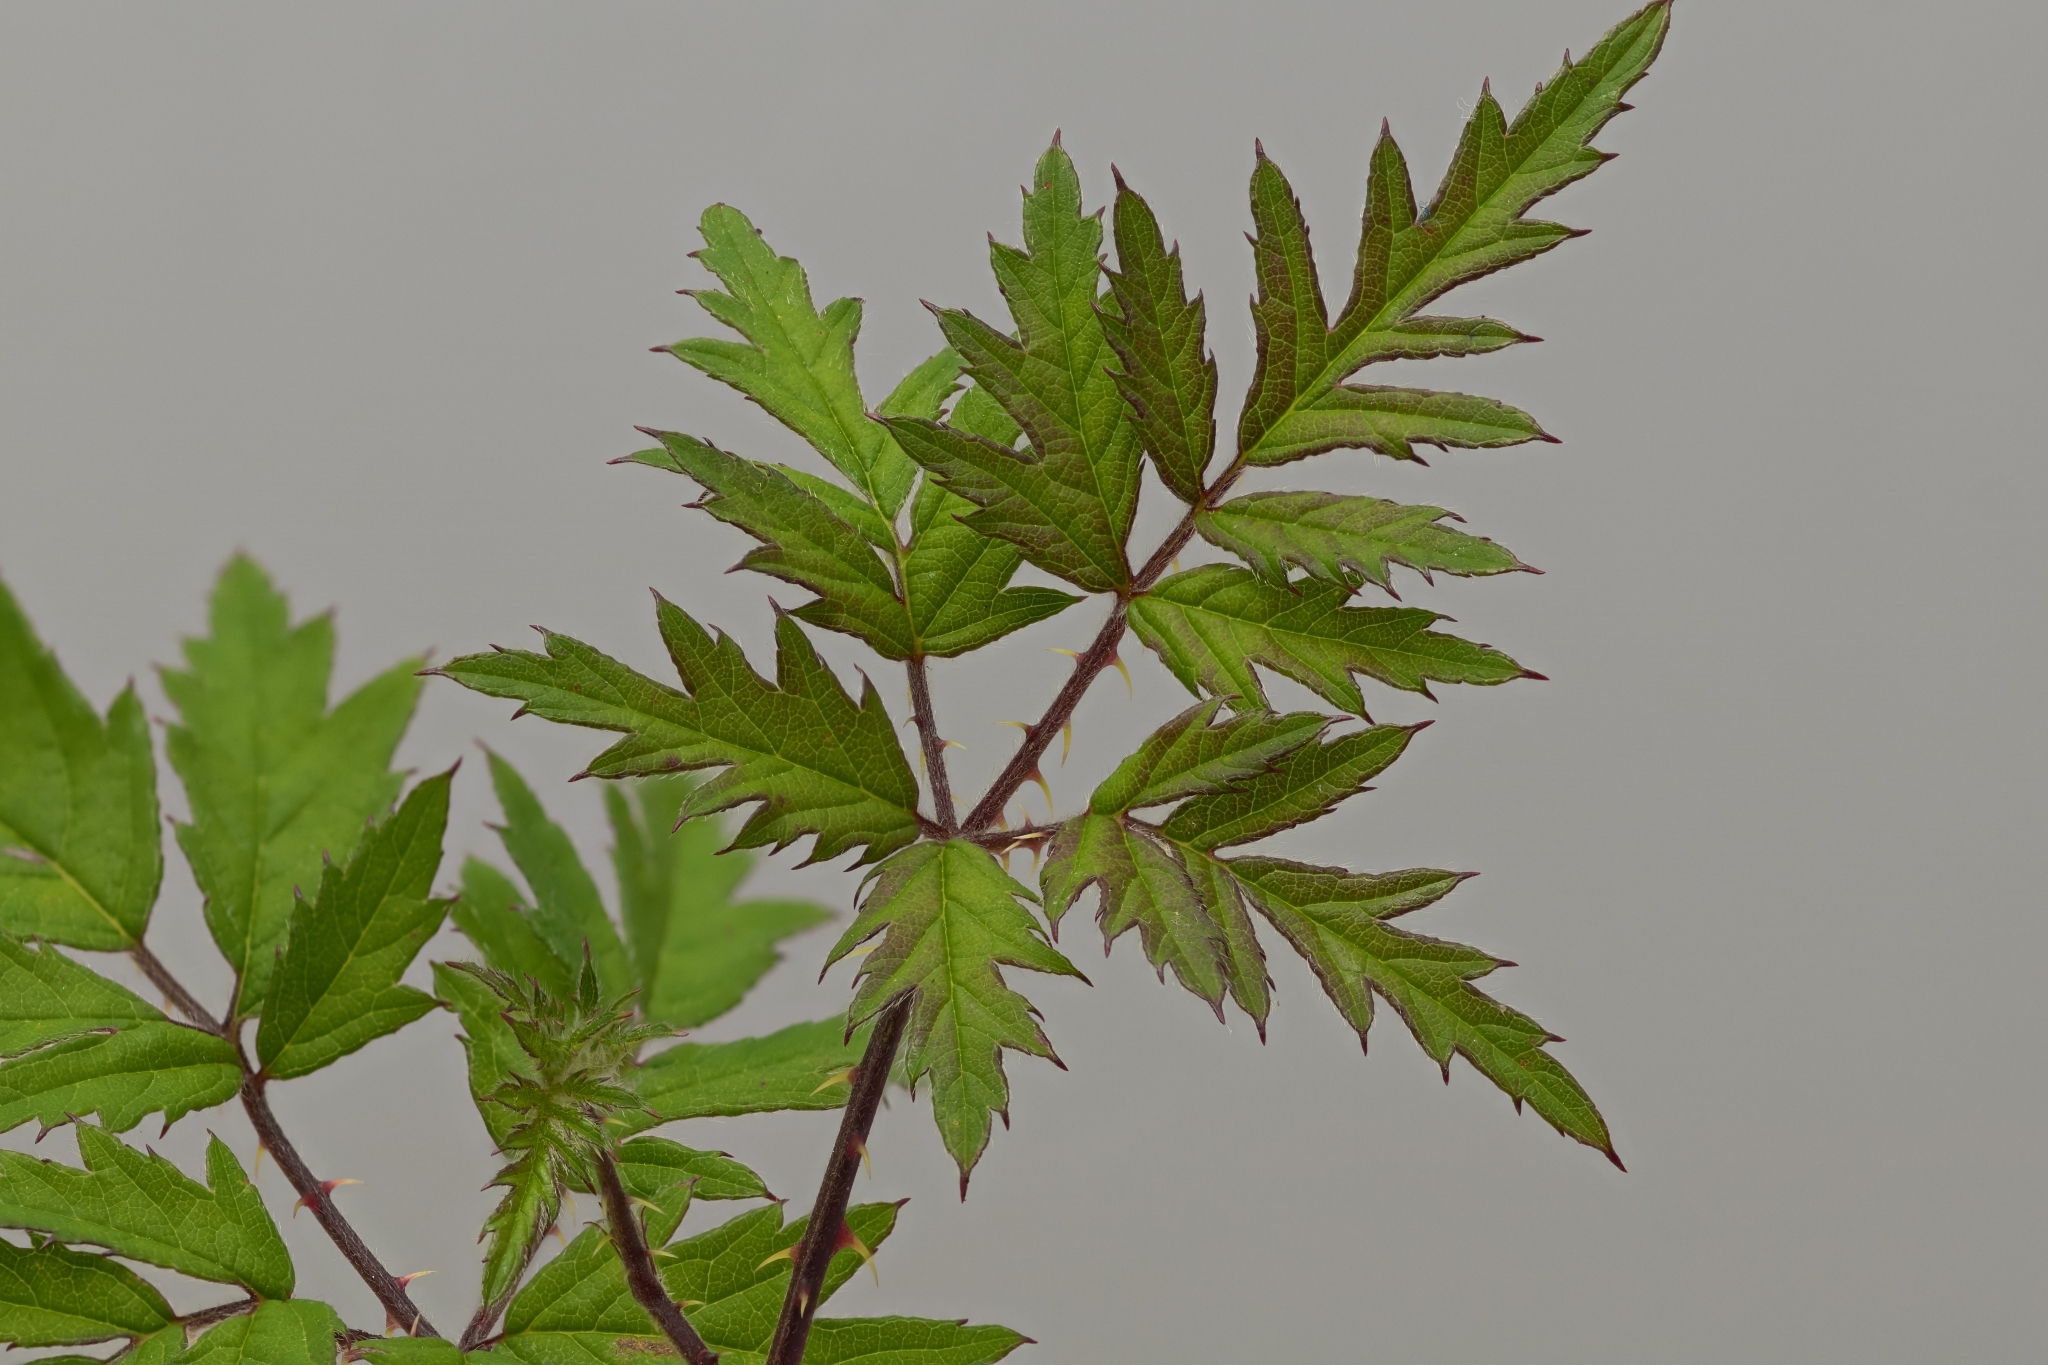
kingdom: Plantae
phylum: Tracheophyta
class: Magnoliopsida
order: Rosales
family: Rosaceae
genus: Rubus
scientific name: Rubus laciniatus
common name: Evergreen blackberry
